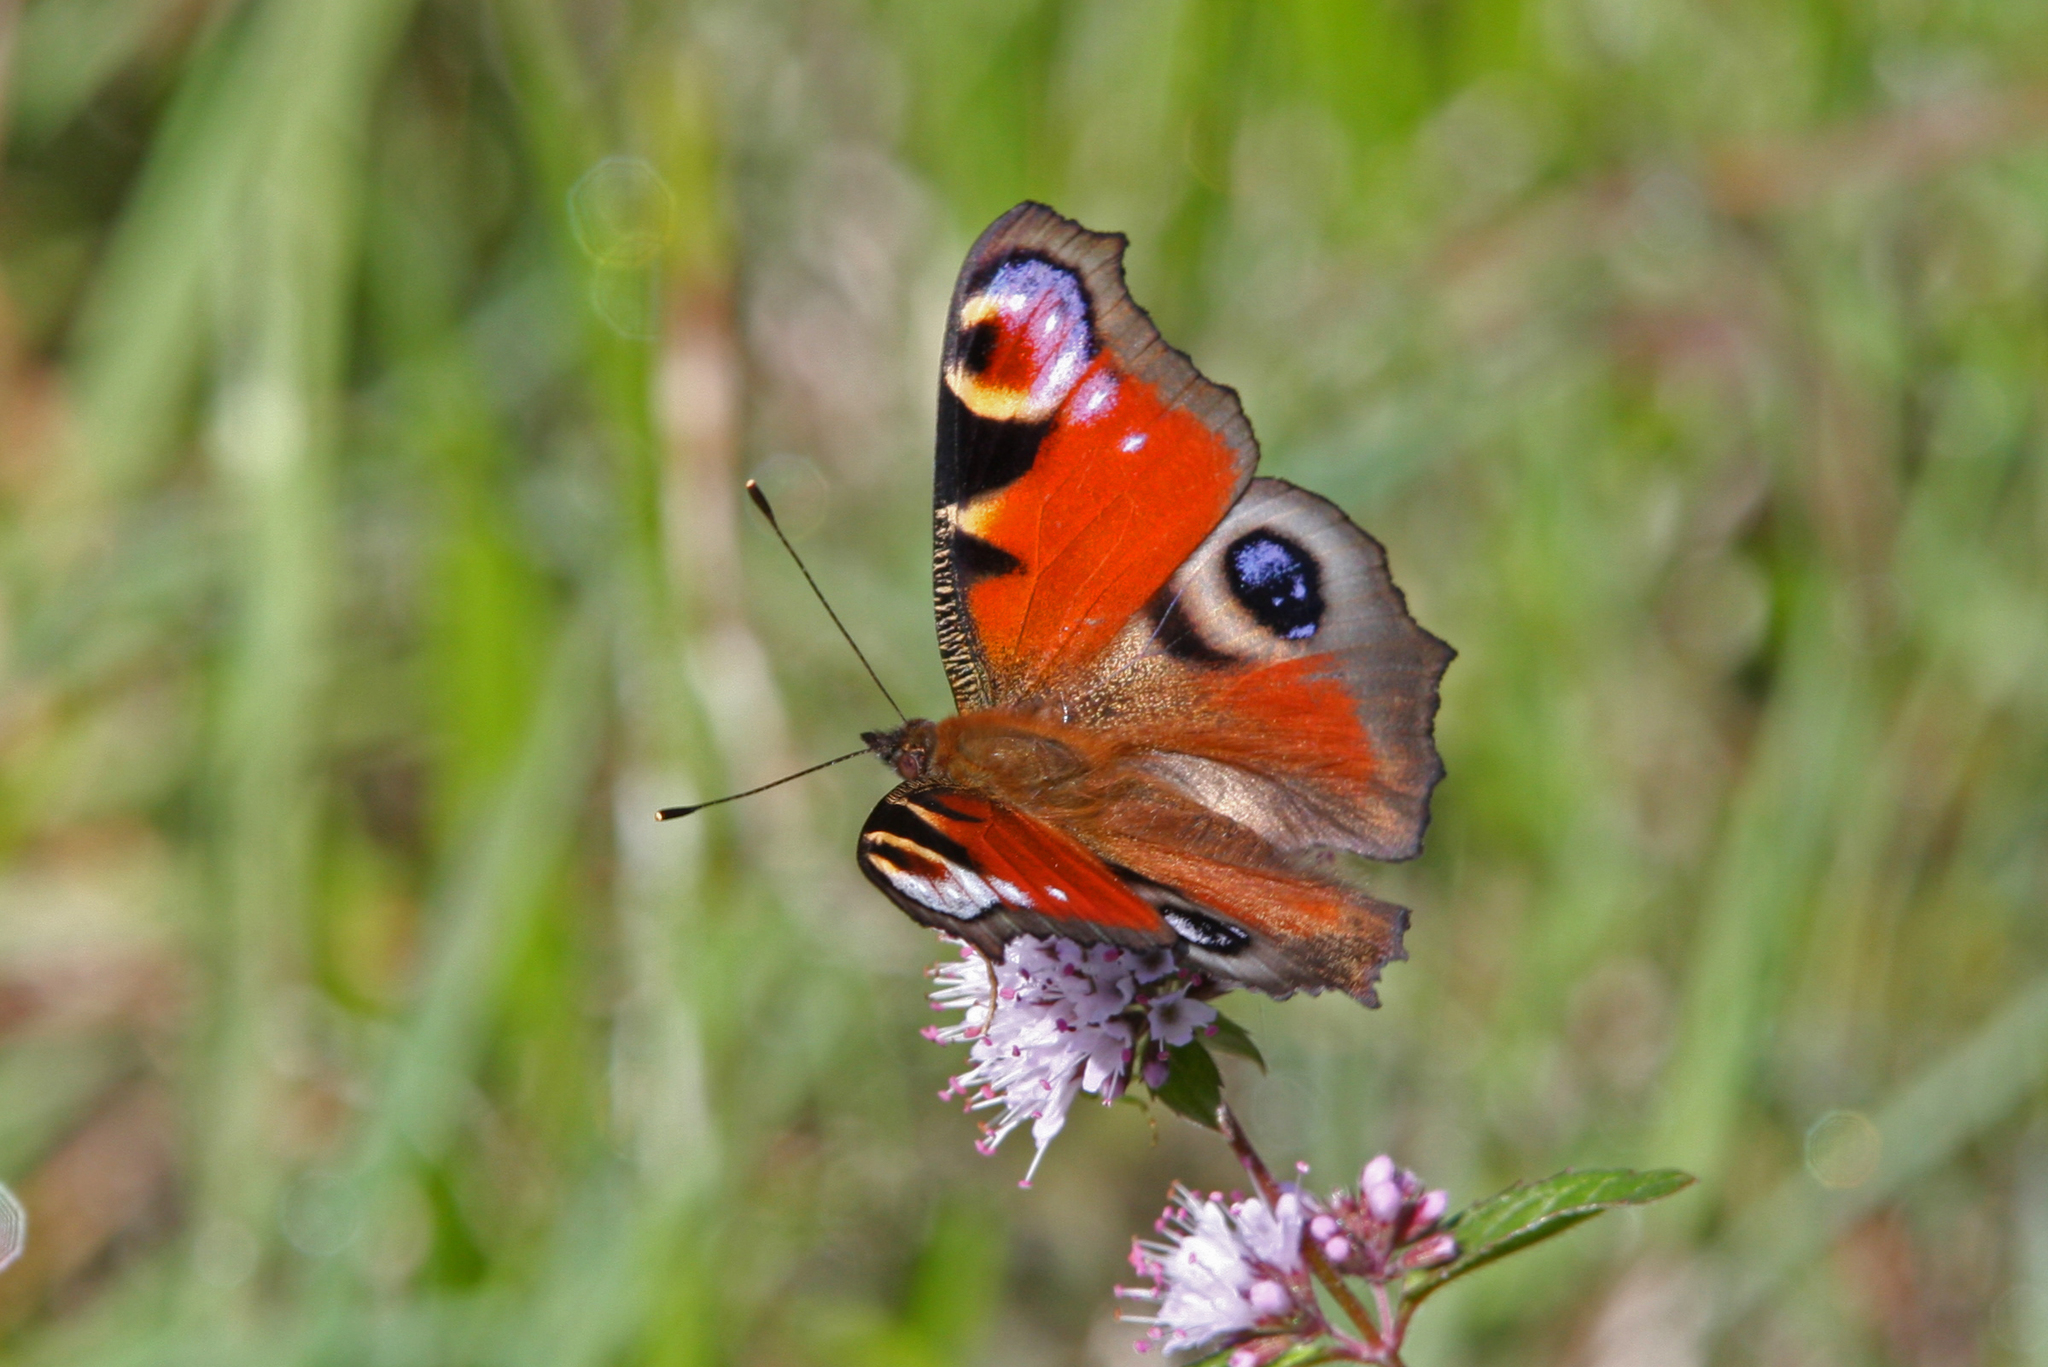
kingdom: Animalia
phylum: Arthropoda
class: Insecta
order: Lepidoptera
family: Nymphalidae
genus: Aglais
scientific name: Aglais io
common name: Peacock
